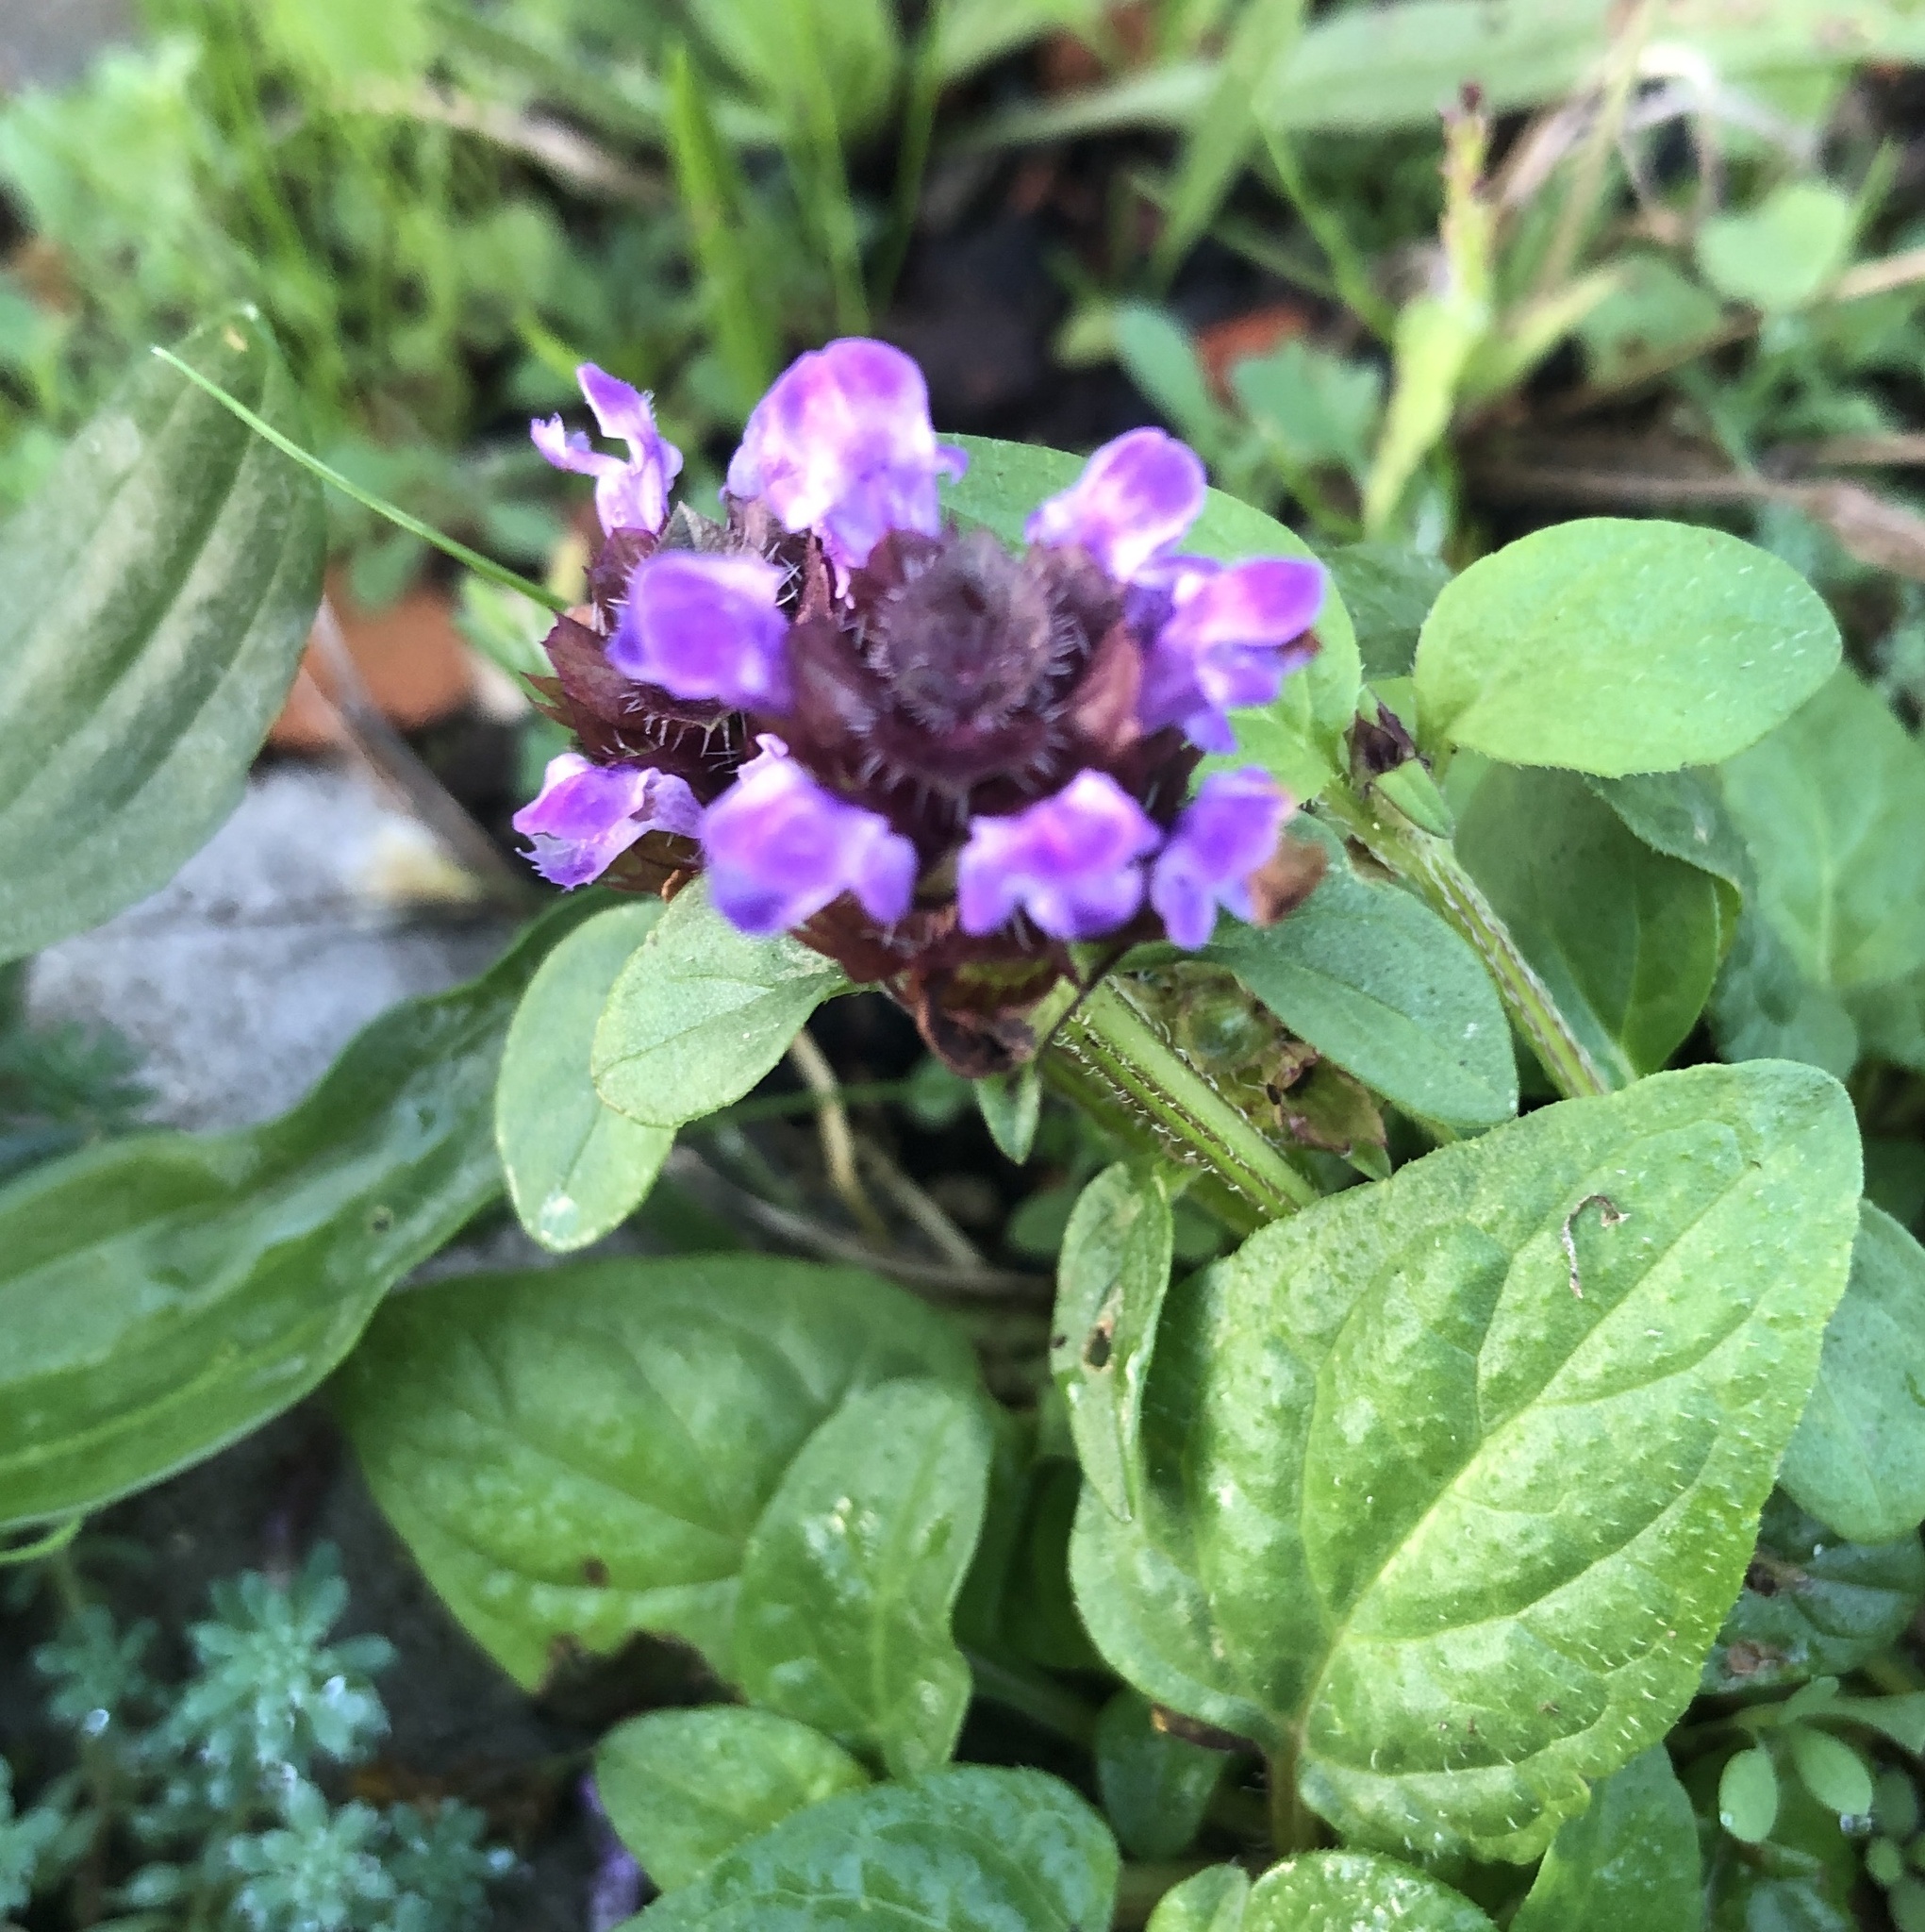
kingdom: Plantae
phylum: Tracheophyta
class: Magnoliopsida
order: Lamiales
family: Lamiaceae
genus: Prunella
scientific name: Prunella vulgaris
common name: Heal-all
